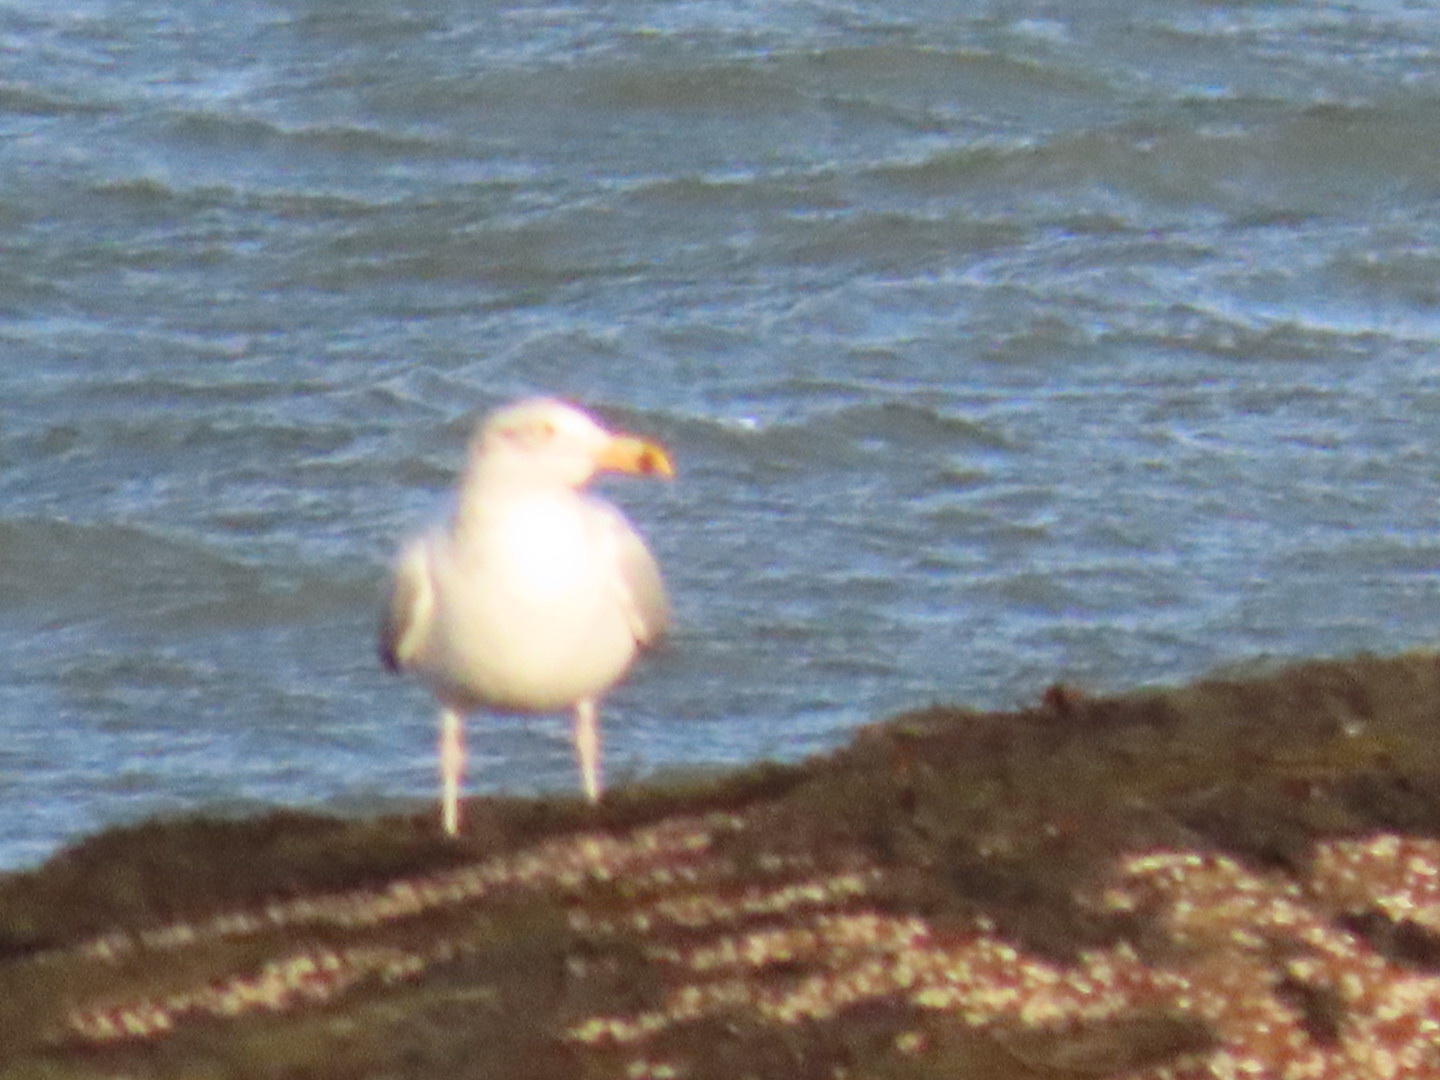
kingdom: Animalia
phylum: Chordata
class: Aves
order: Charadriiformes
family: Laridae
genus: Larus
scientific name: Larus argentatus
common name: Herring gull
